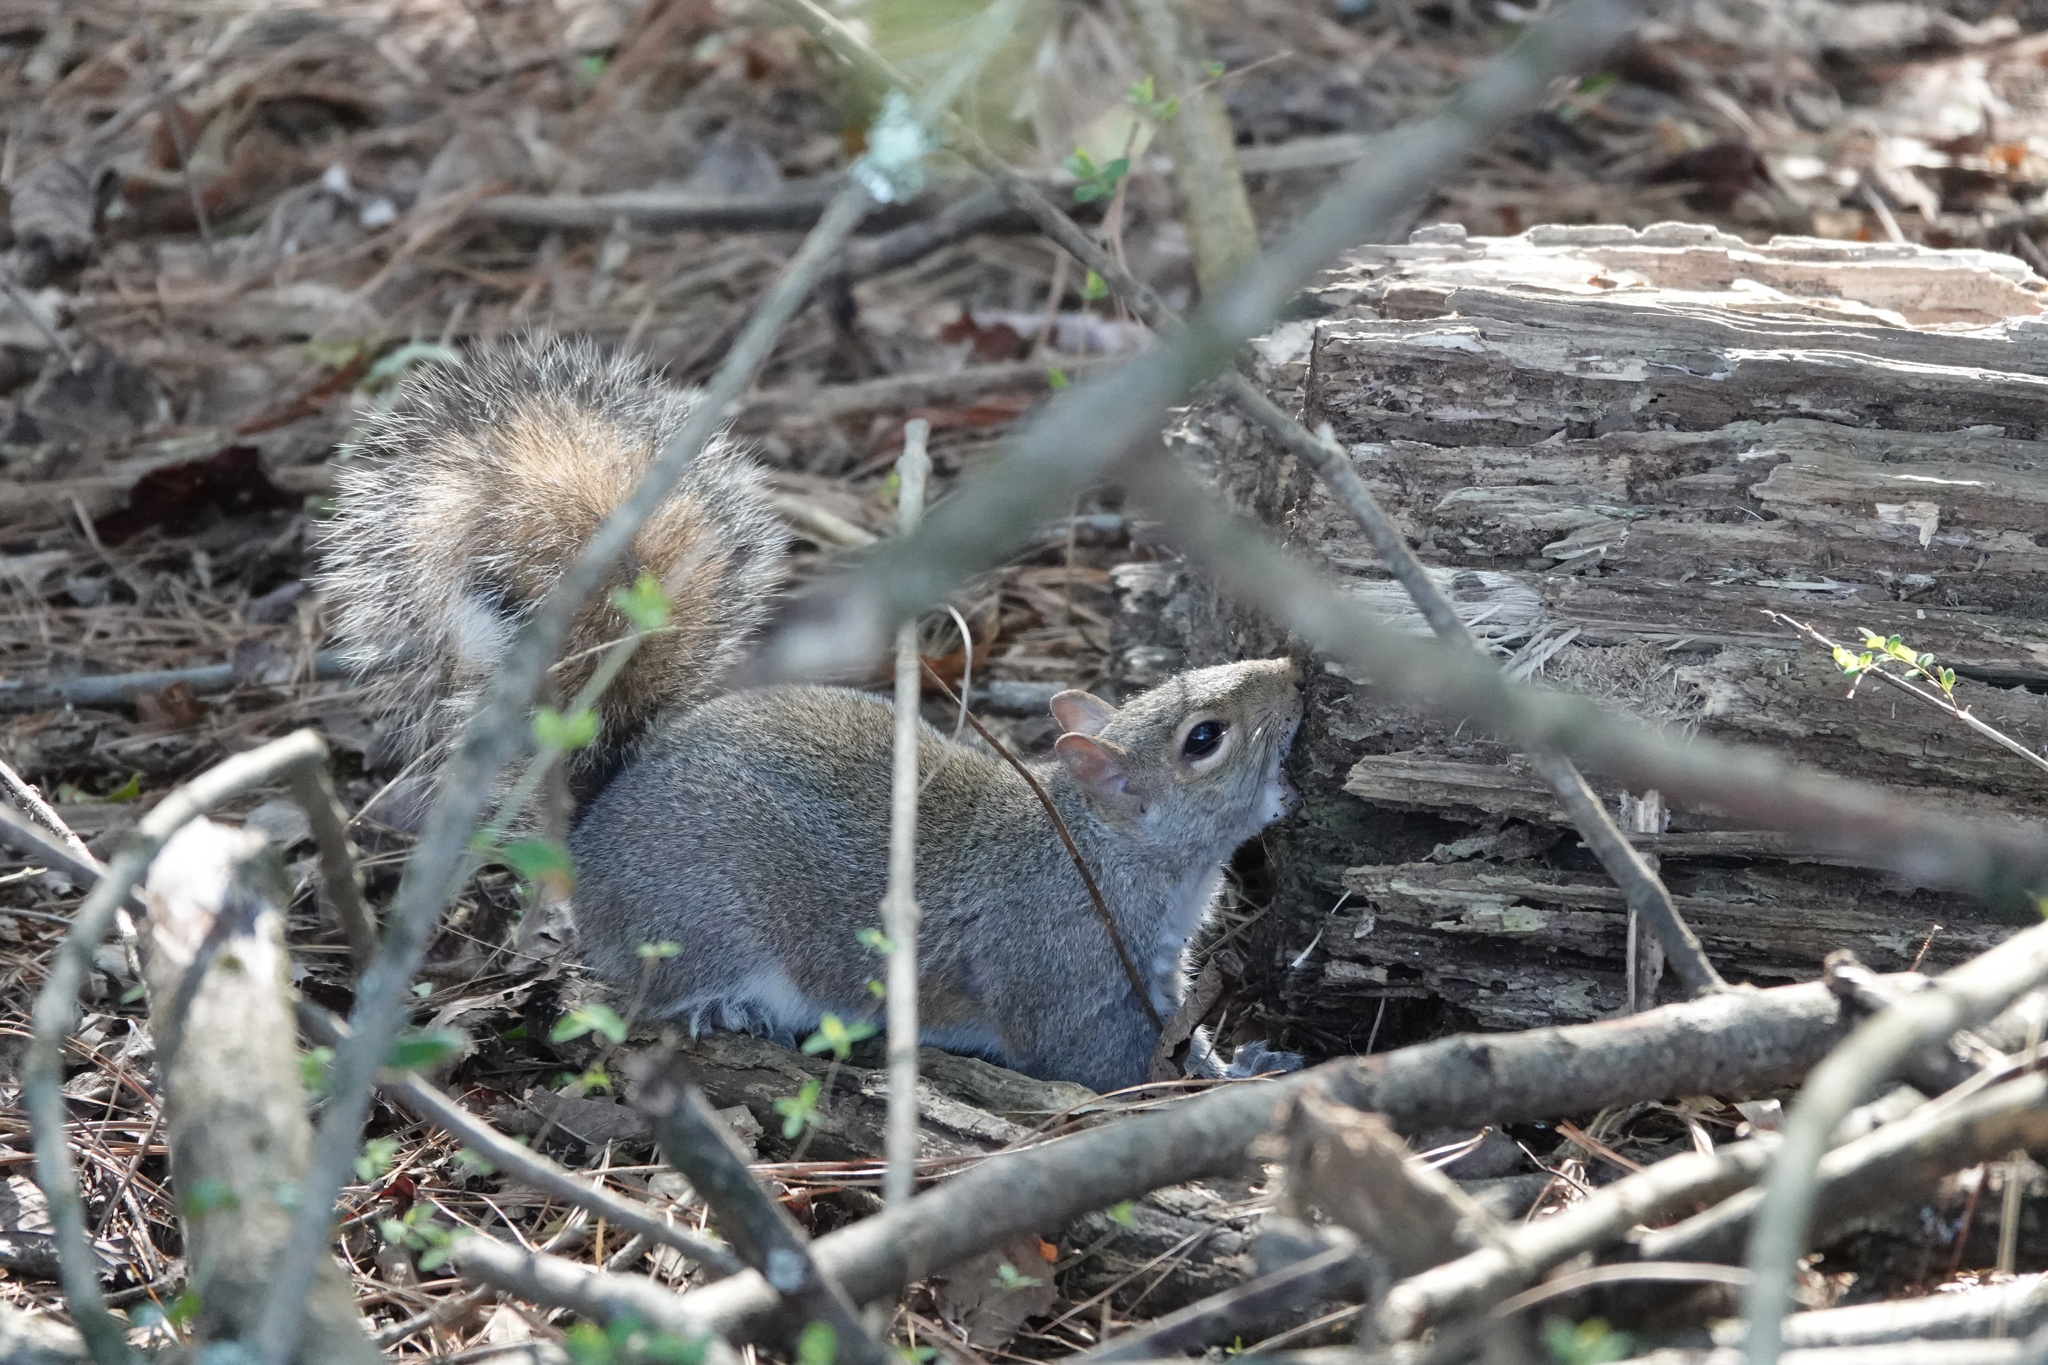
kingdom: Animalia
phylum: Chordata
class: Mammalia
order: Rodentia
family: Sciuridae
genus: Sciurus
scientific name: Sciurus carolinensis
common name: Eastern gray squirrel
